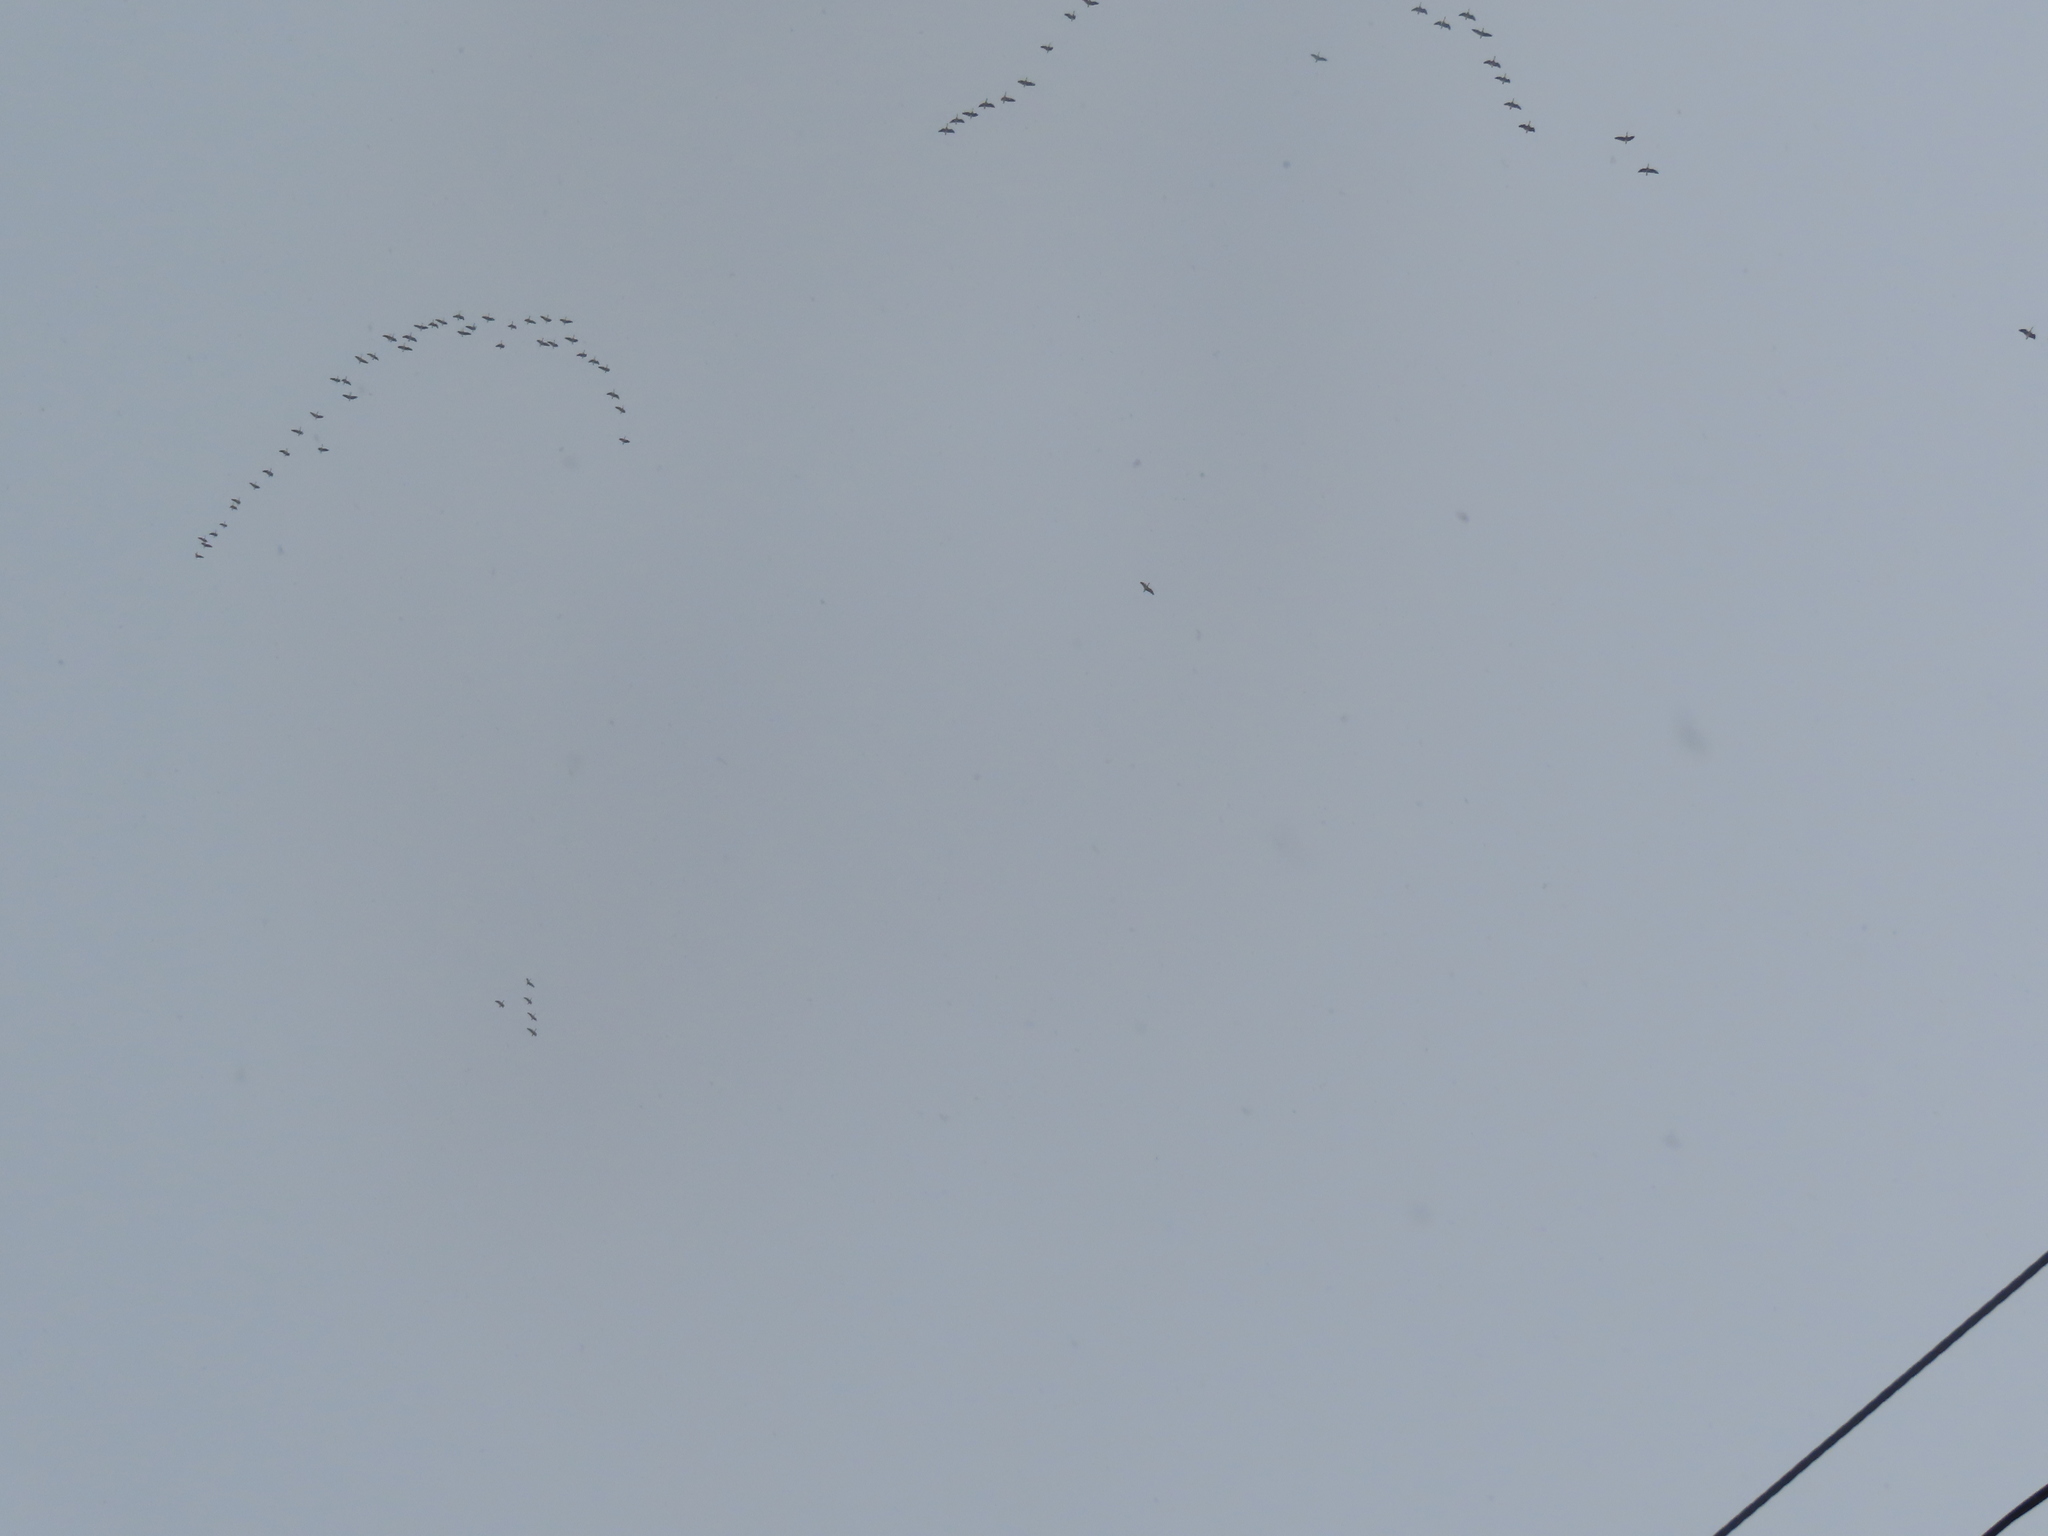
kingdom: Animalia
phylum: Chordata
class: Aves
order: Anseriformes
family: Anatidae
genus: Branta
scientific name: Branta canadensis
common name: Canada goose
